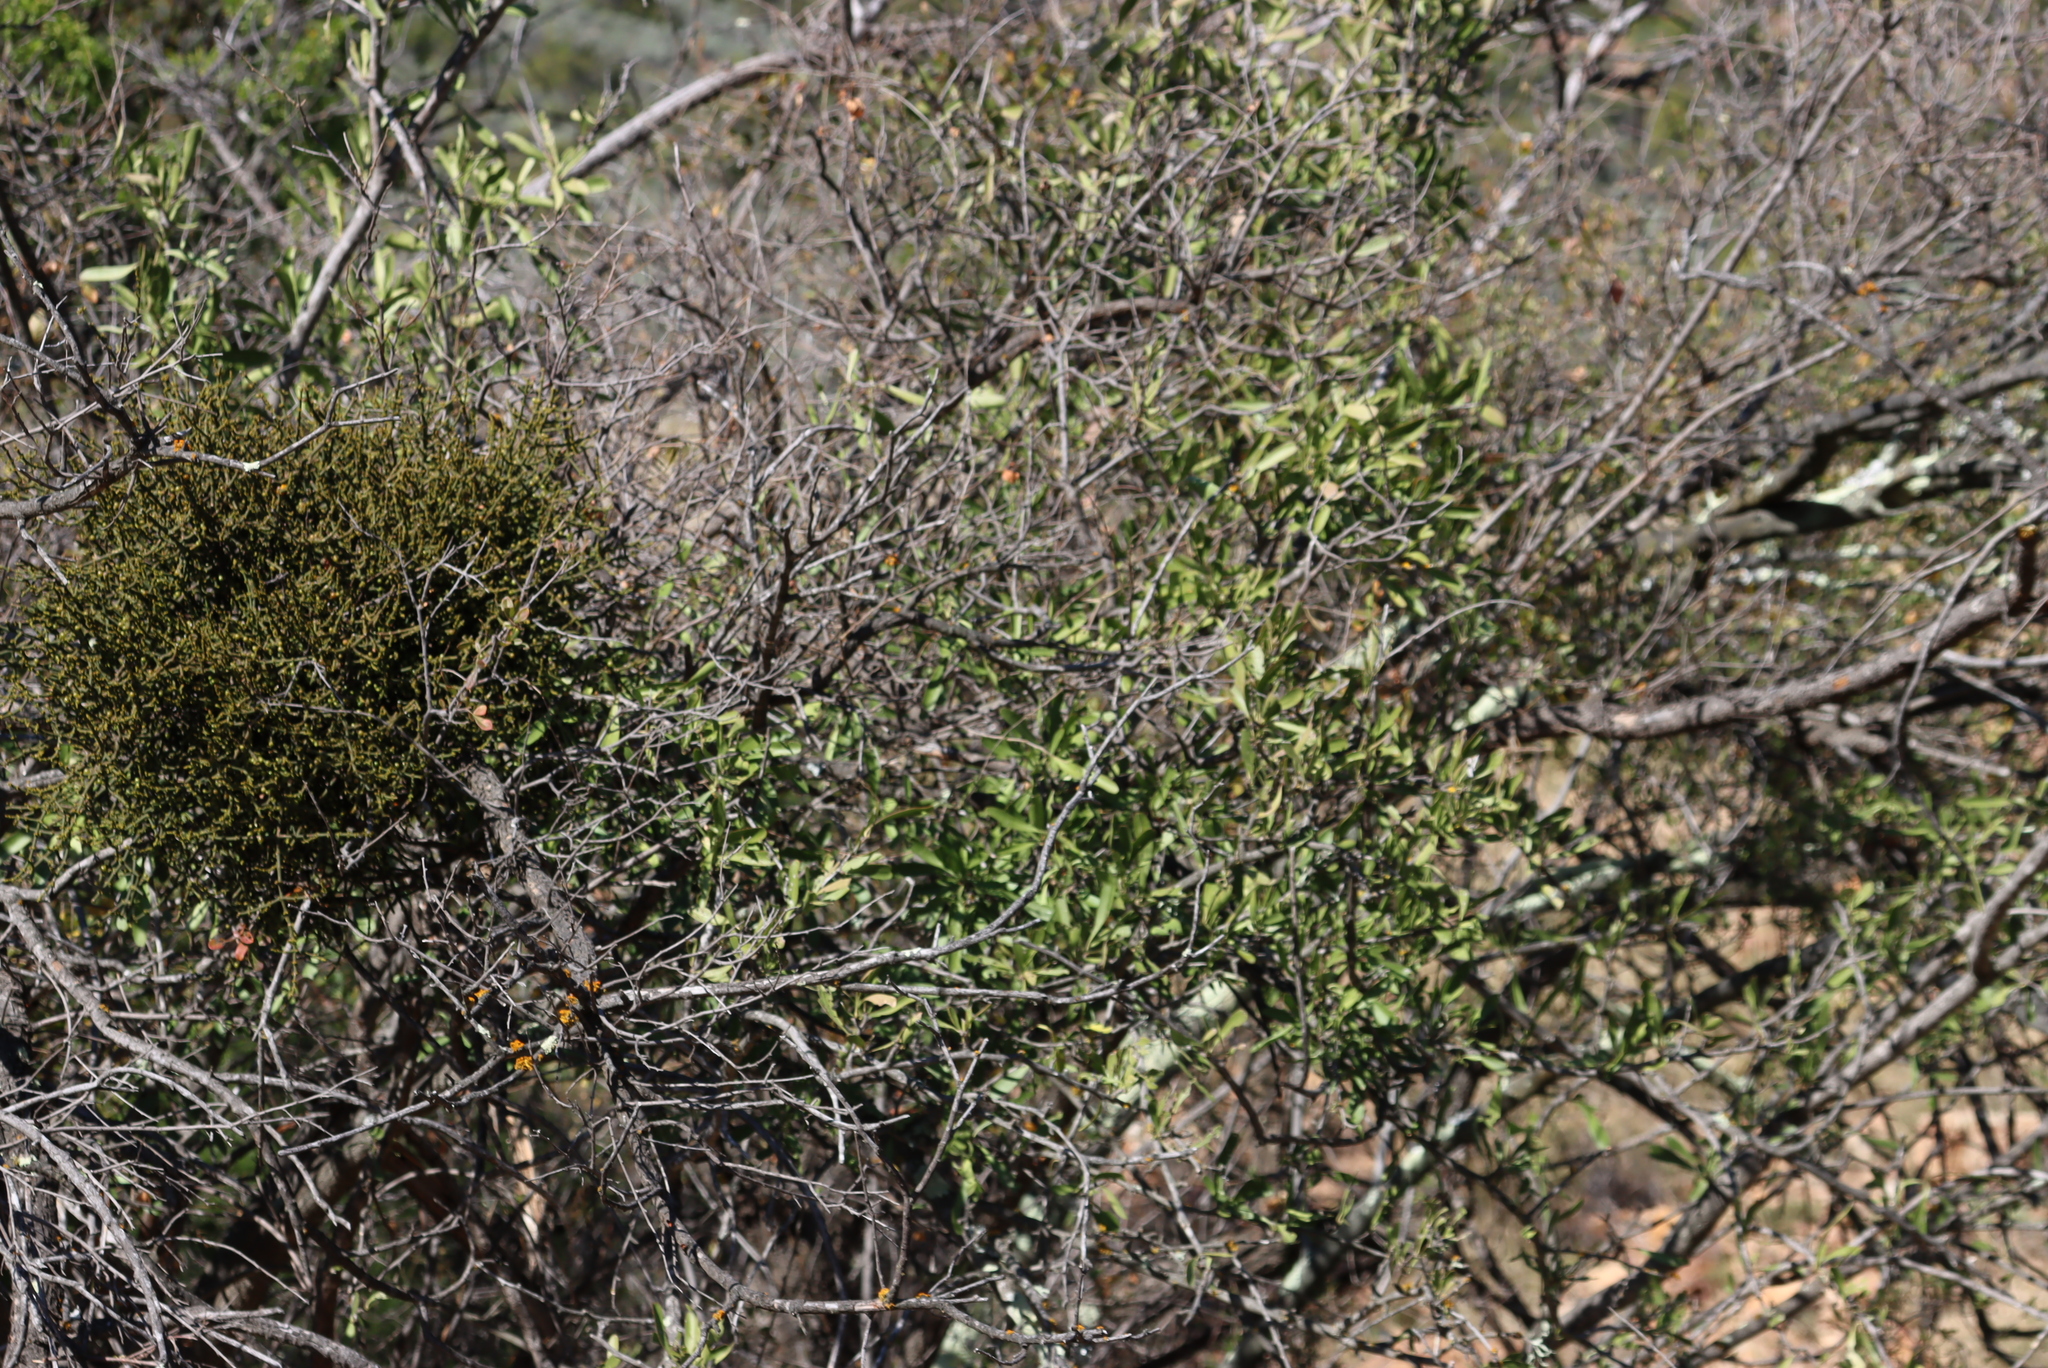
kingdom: Plantae
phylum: Tracheophyta
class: Magnoliopsida
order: Celastrales
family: Celastraceae
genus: Gymnosporia
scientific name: Gymnosporia buxifolia
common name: Common spike-thorn
